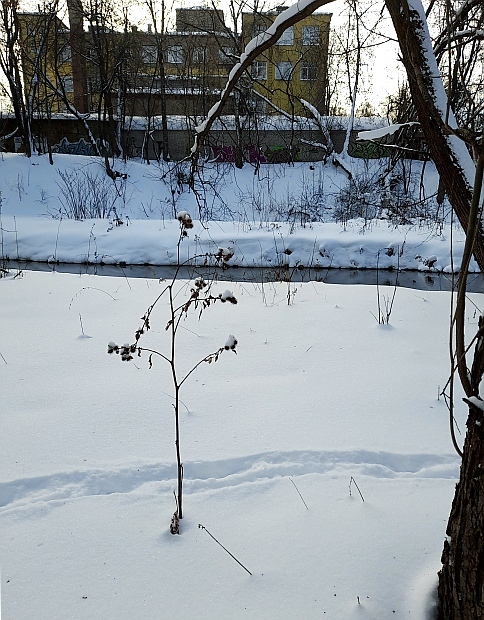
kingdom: Plantae
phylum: Tracheophyta
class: Magnoliopsida
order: Asterales
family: Asteraceae
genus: Arctium
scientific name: Arctium lappa
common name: Greater burdock
